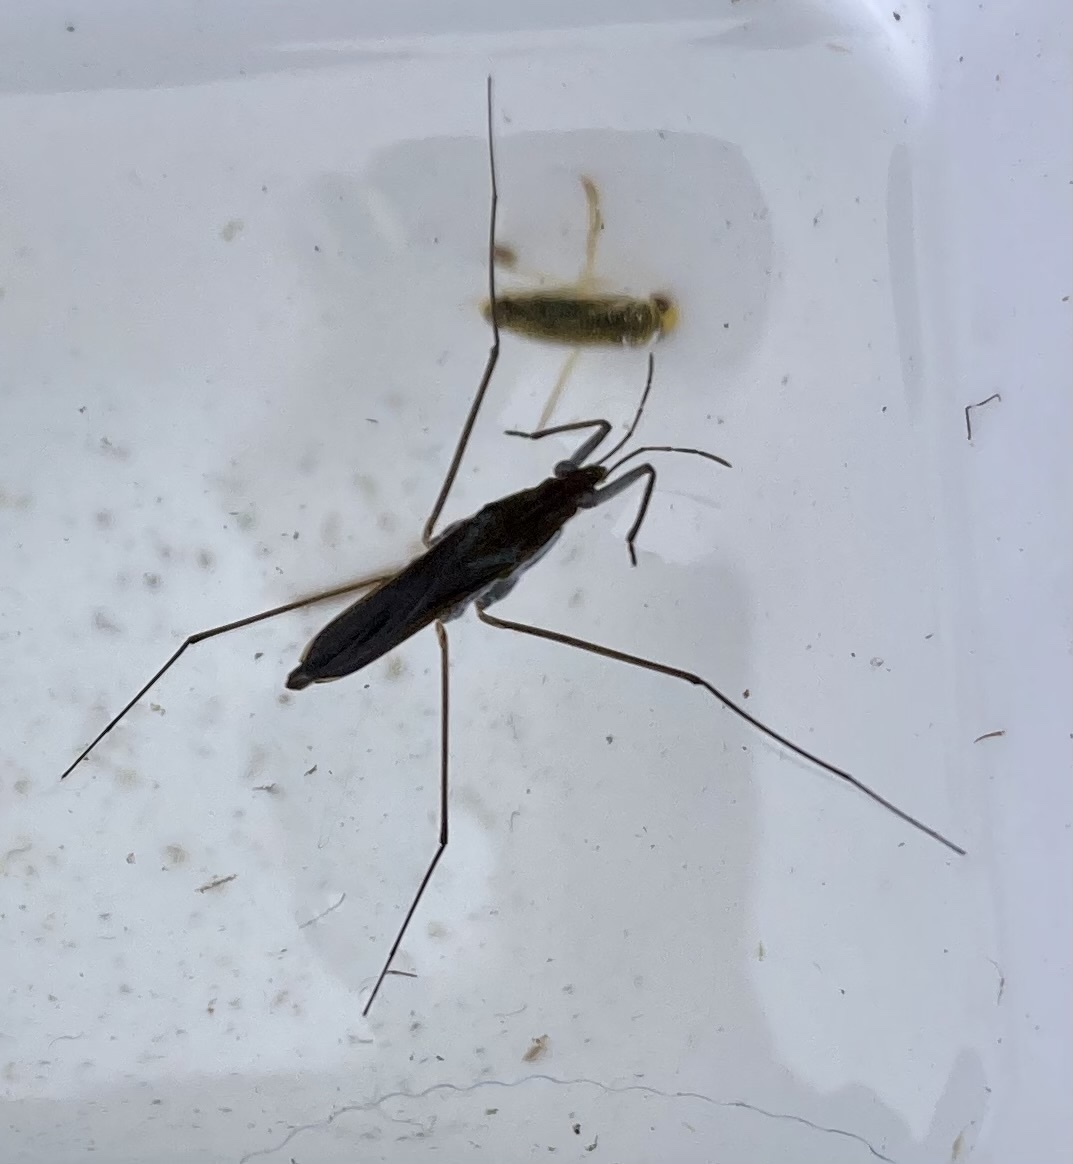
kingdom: Animalia
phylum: Arthropoda
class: Insecta
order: Hemiptera
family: Gerridae
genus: Gerris
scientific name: Gerris
